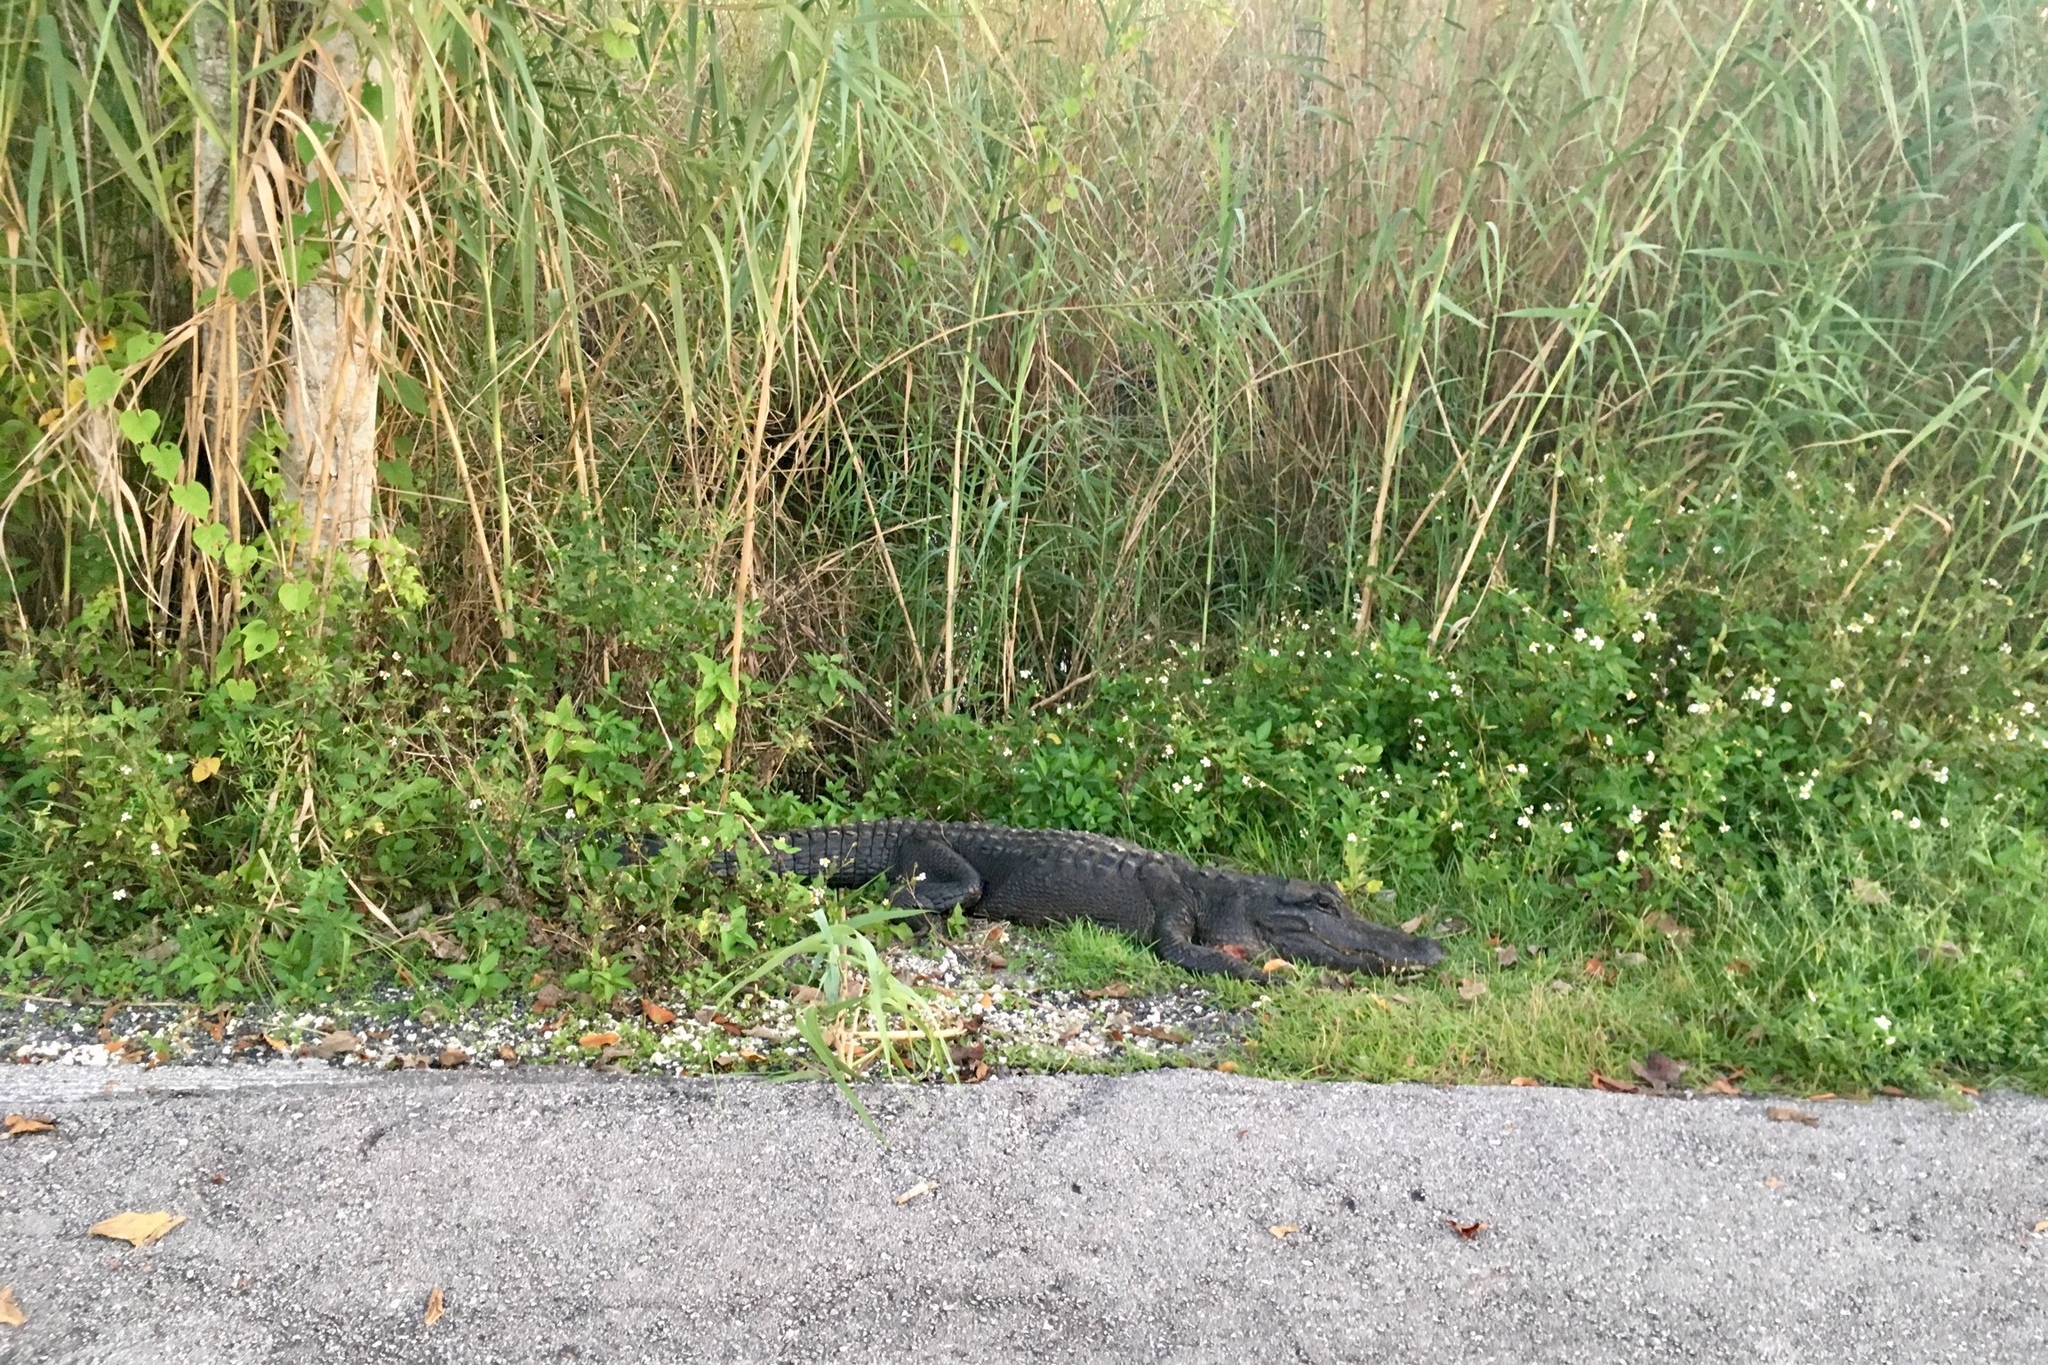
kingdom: Animalia
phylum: Chordata
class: Crocodylia
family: Alligatoridae
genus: Alligator
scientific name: Alligator mississippiensis
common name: American alligator
